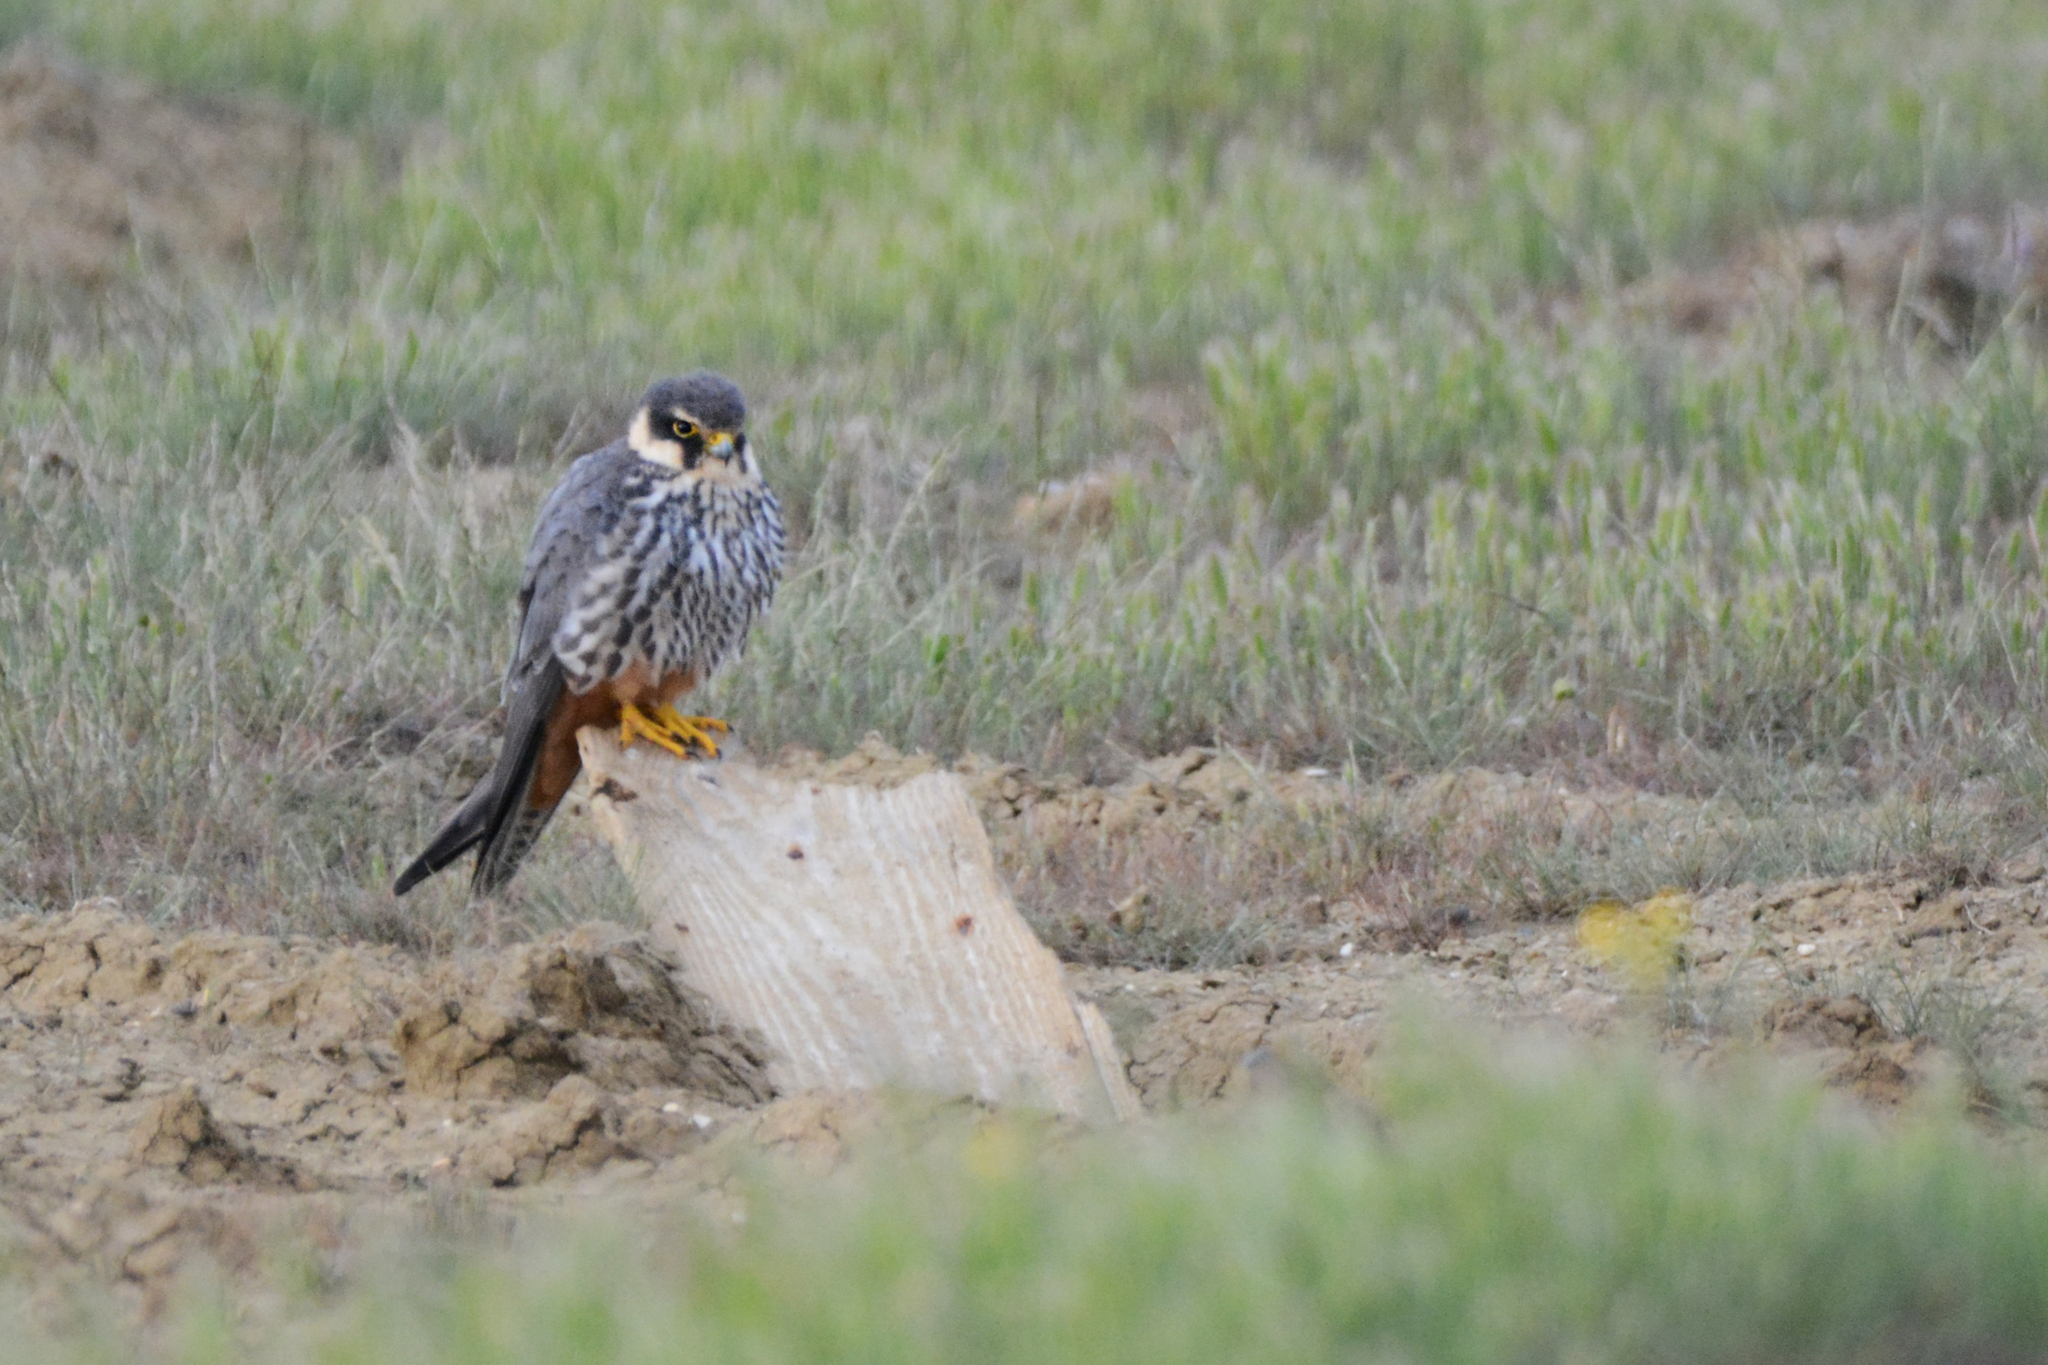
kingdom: Animalia
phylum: Chordata
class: Aves
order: Falconiformes
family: Falconidae
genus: Falco
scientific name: Falco subbuteo
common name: Eurasian hobby
